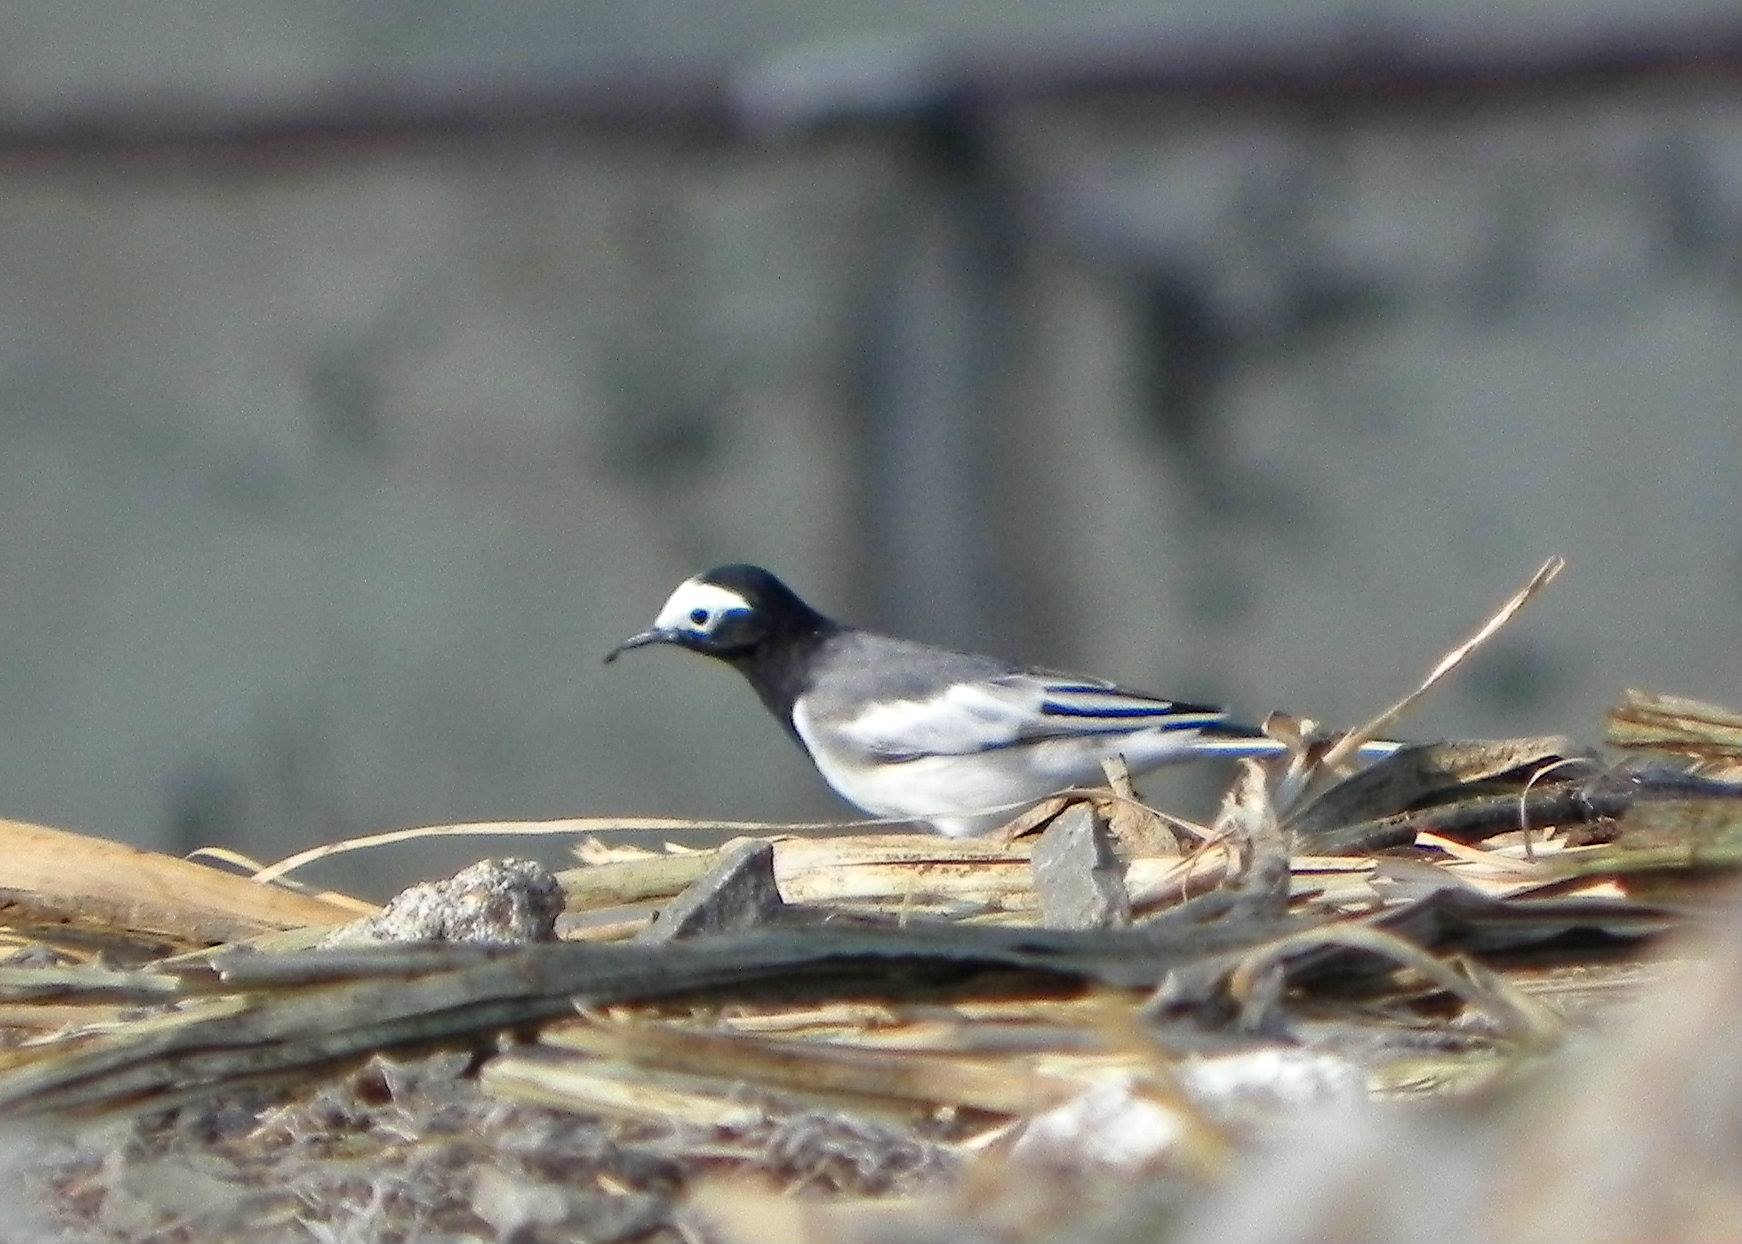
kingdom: Animalia
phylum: Chordata
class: Aves
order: Passeriformes
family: Motacillidae
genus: Motacilla
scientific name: Motacilla alba
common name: White wagtail
